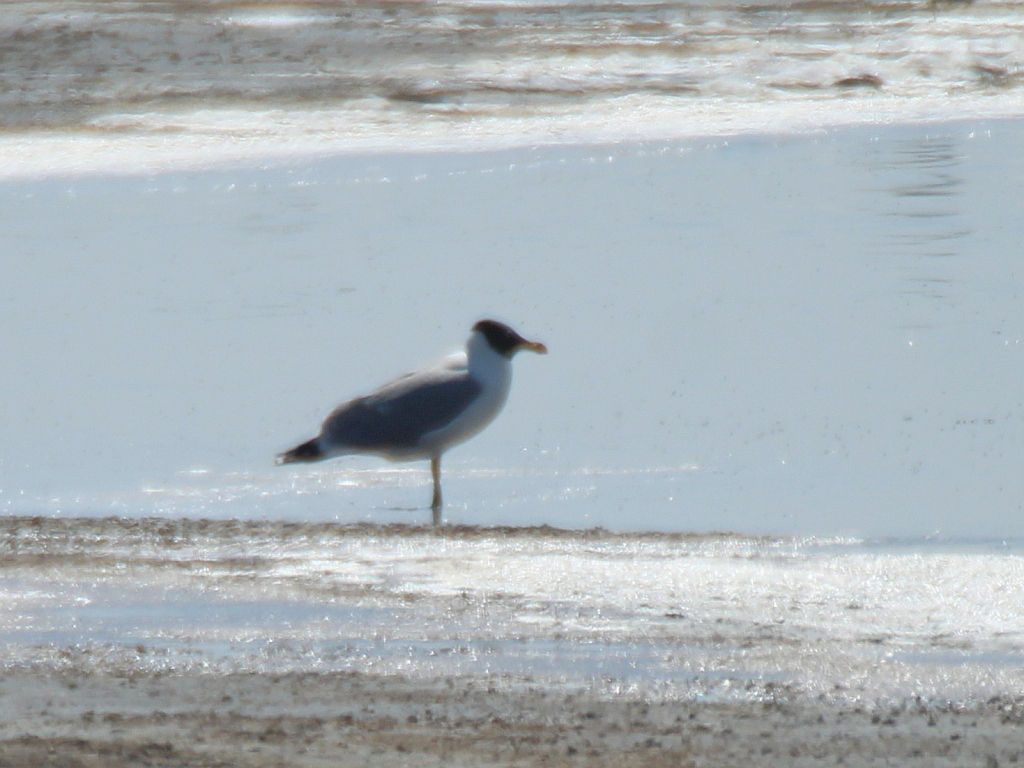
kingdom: Animalia
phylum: Chordata
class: Aves
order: Charadriiformes
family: Laridae
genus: Ichthyaetus
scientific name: Ichthyaetus ichthyaetus
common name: Pallas's gull
